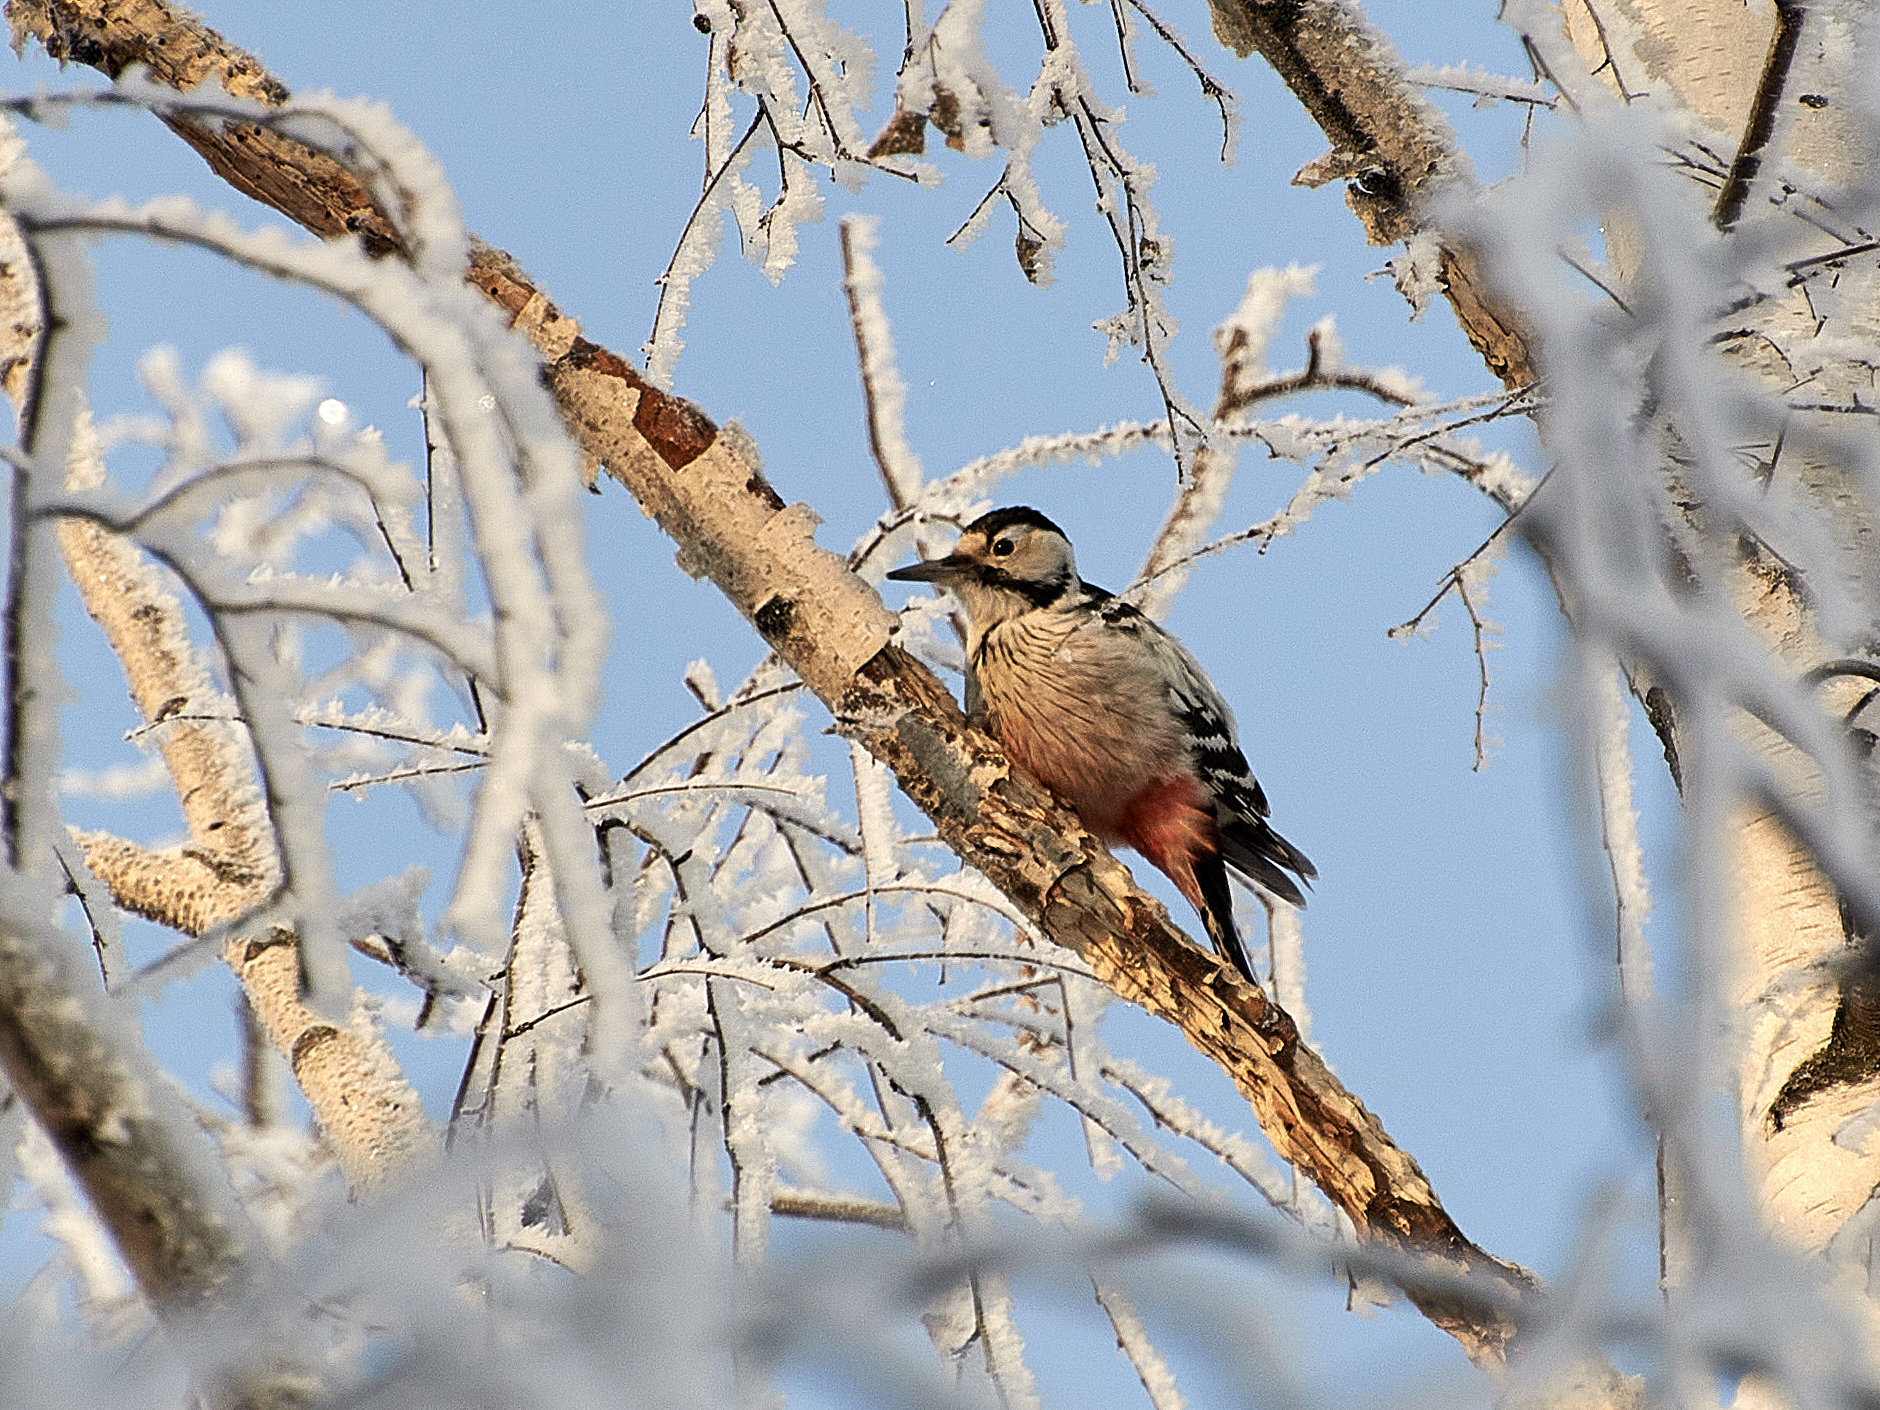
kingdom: Animalia
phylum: Chordata
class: Aves
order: Piciformes
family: Picidae
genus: Dendrocopos
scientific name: Dendrocopos leucotos
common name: White-backed woodpecker
